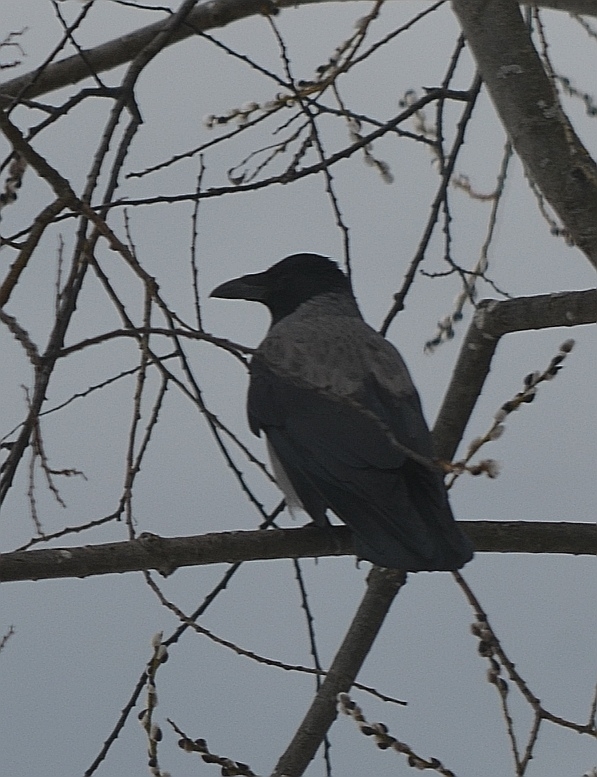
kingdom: Animalia
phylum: Chordata
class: Aves
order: Passeriformes
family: Corvidae
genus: Corvus
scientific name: Corvus cornix
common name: Hooded crow
